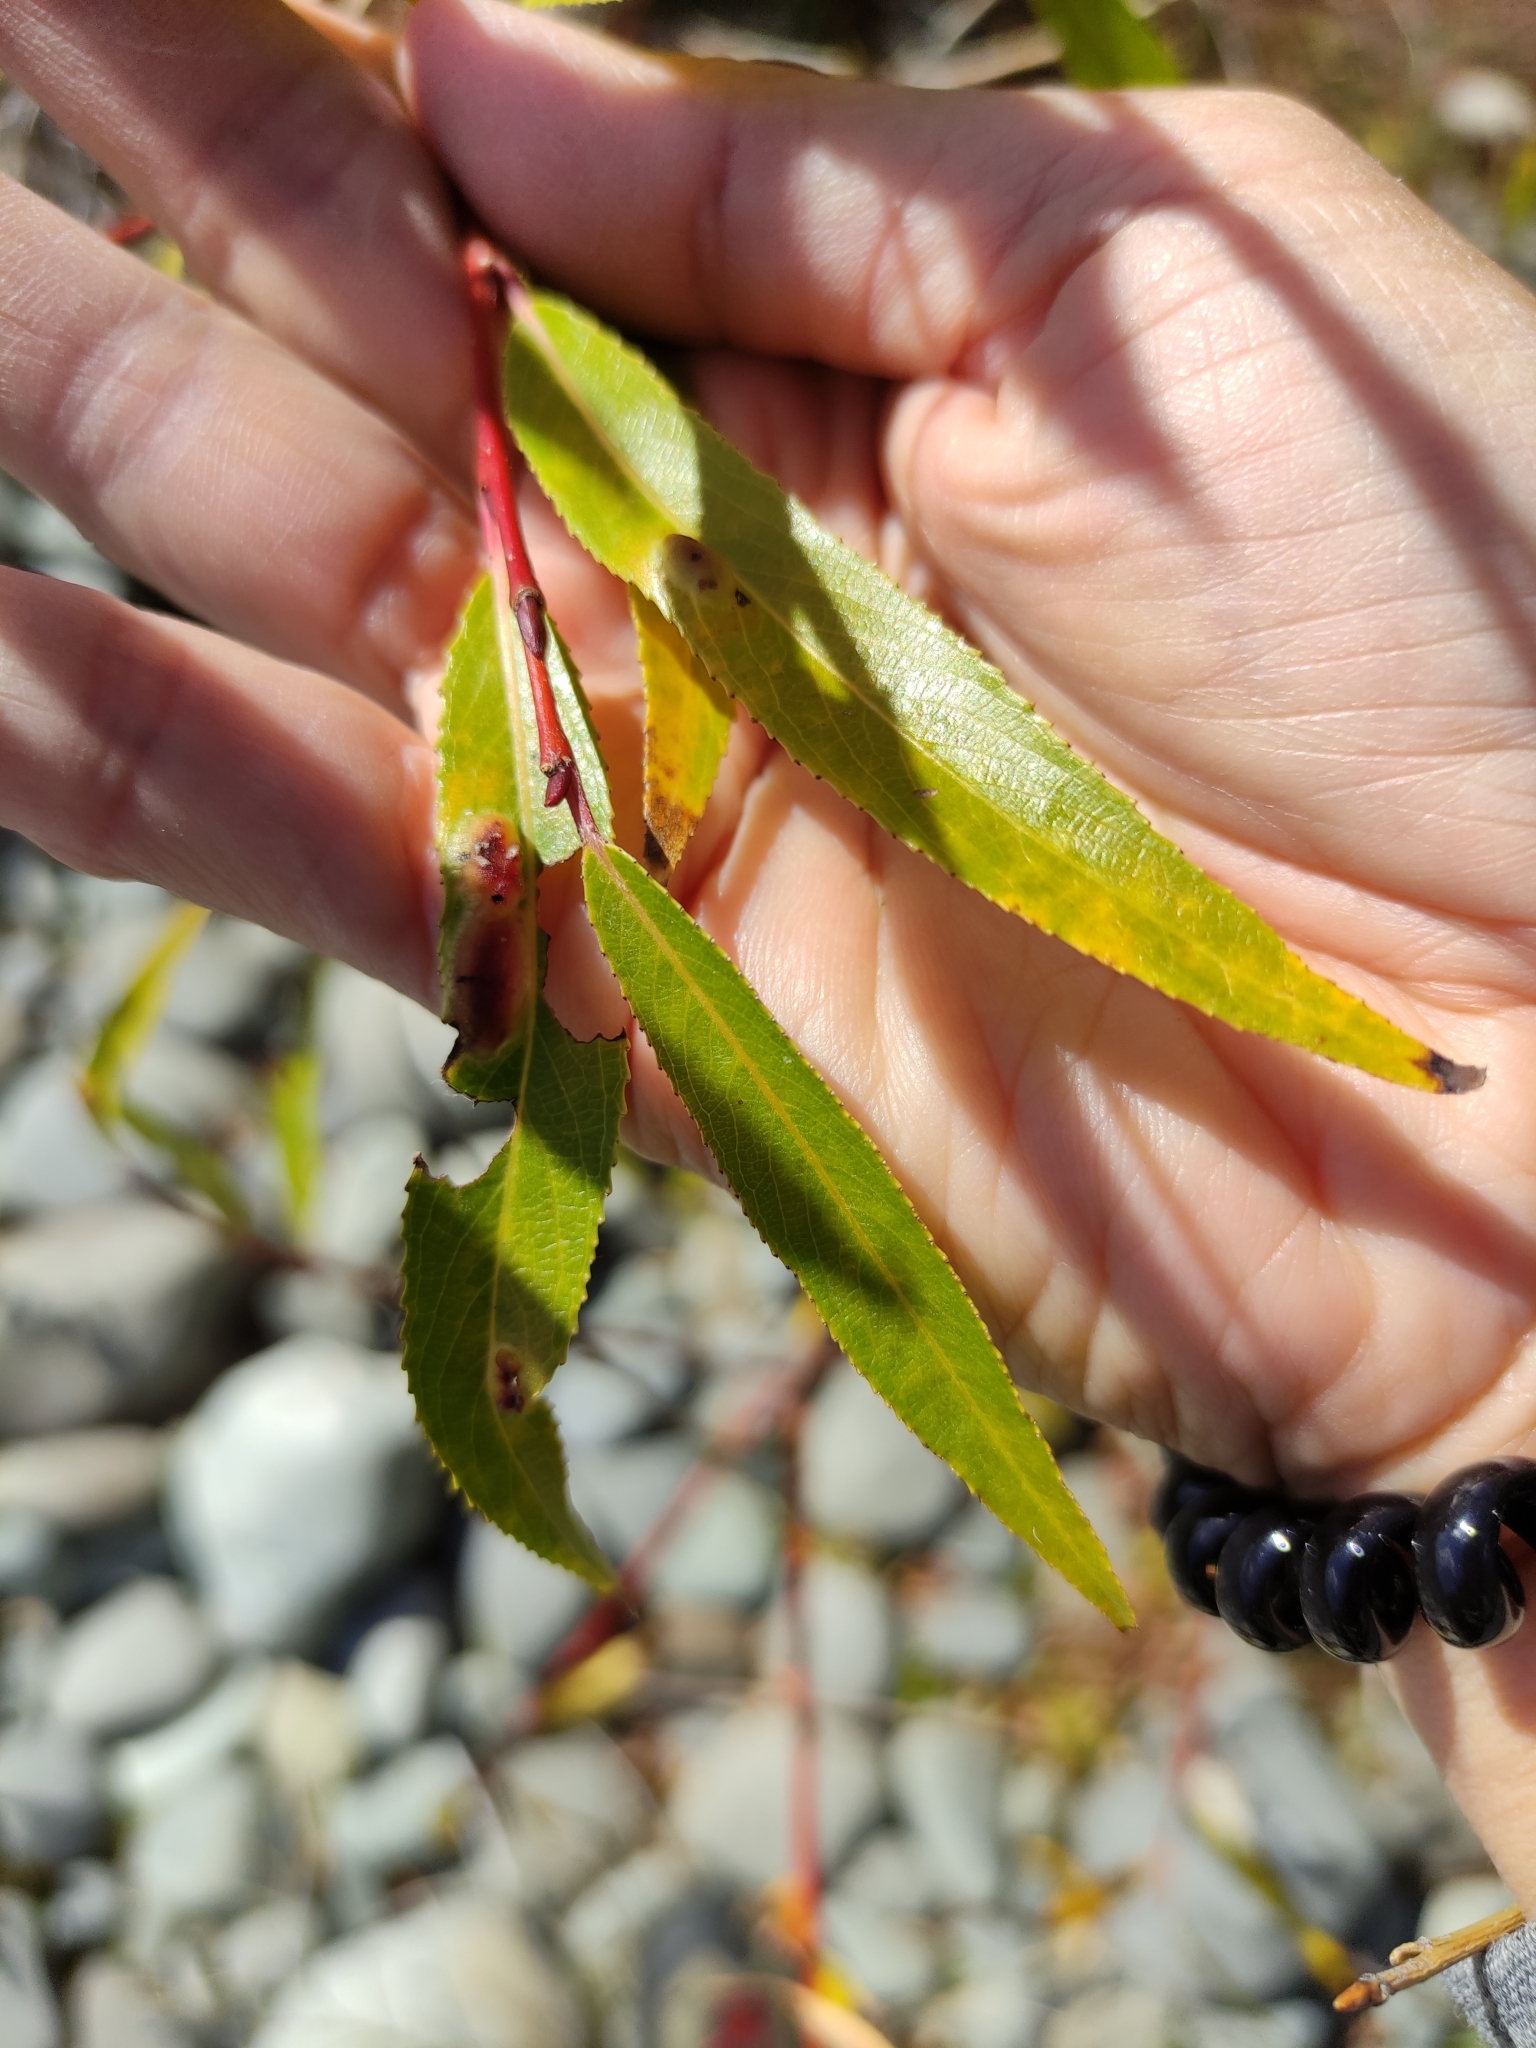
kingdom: Plantae
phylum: Tracheophyta
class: Magnoliopsida
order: Malpighiales
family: Salicaceae
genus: Salix
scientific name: Salix fragilis
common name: Crack willow
